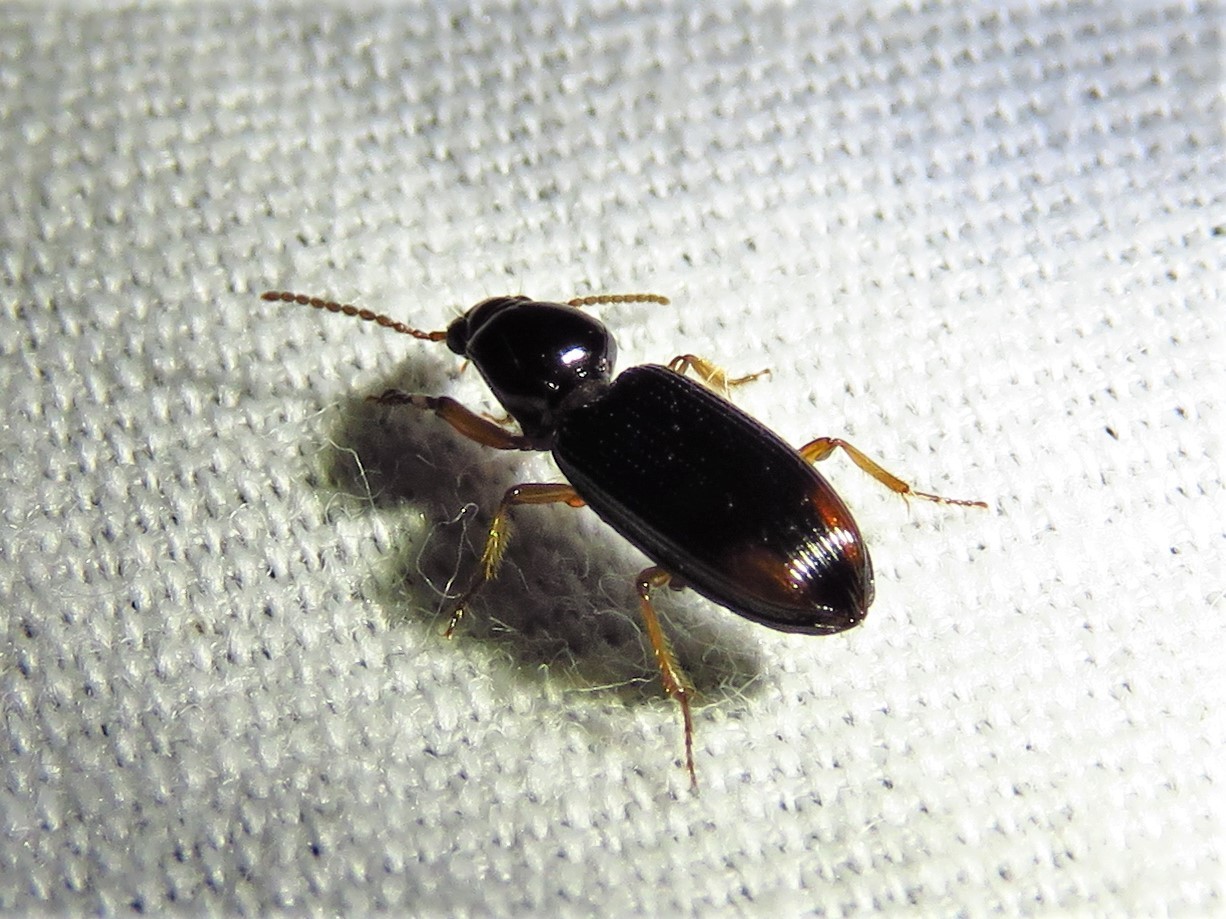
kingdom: Animalia
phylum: Arthropoda
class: Insecta
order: Coleoptera
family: Carabidae
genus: Aspidoglossa
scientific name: Aspidoglossa subangulata
